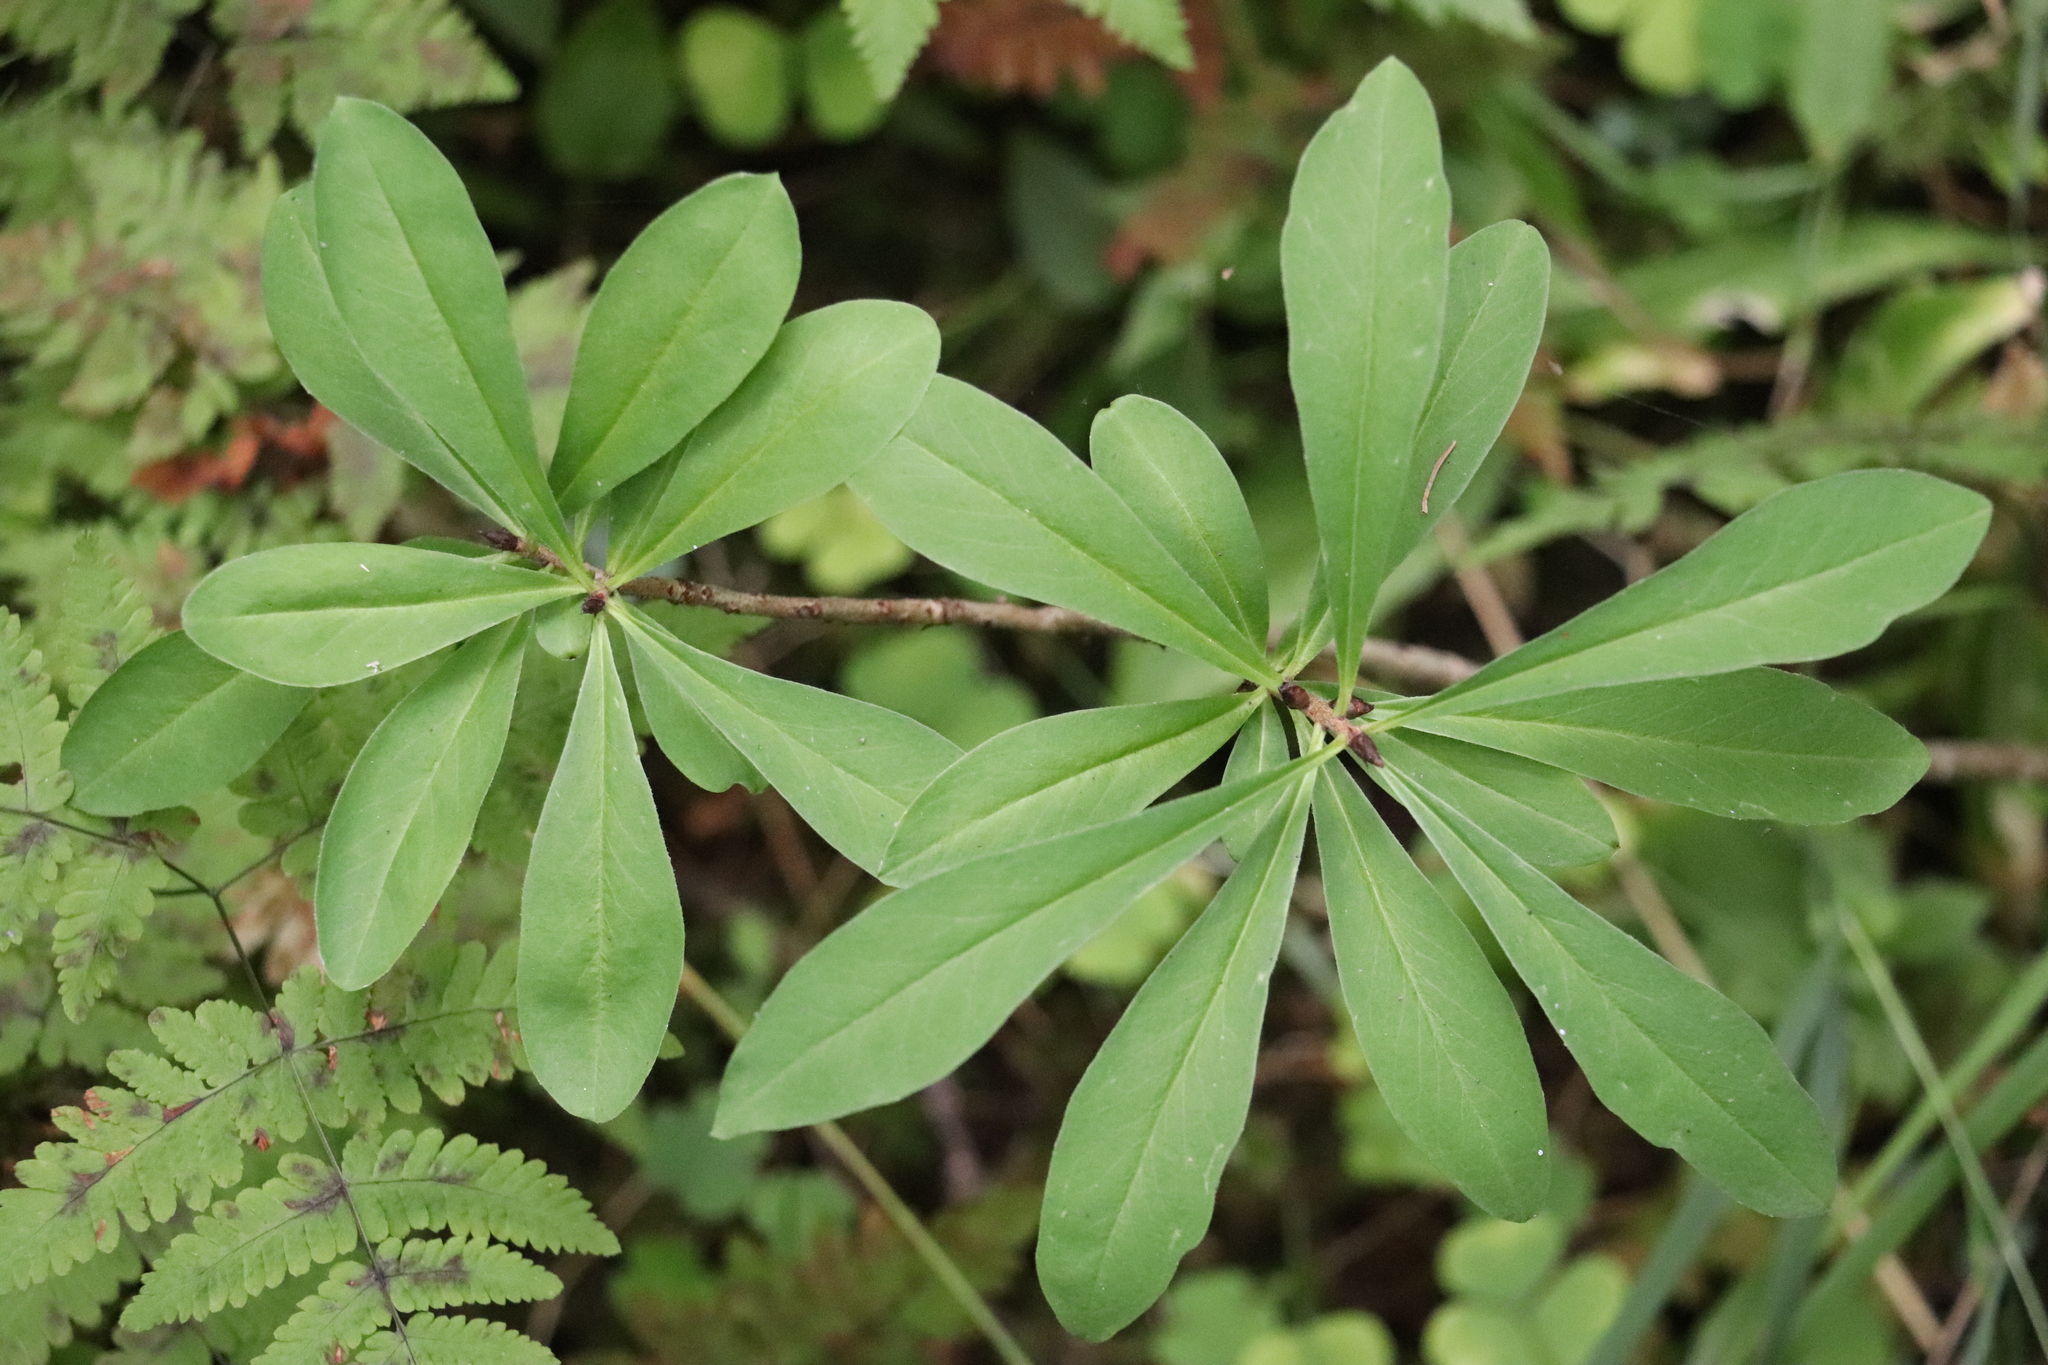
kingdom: Plantae
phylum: Tracheophyta
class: Magnoliopsida
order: Malvales
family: Thymelaeaceae
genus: Daphne
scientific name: Daphne mezereum
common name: Mezereon
